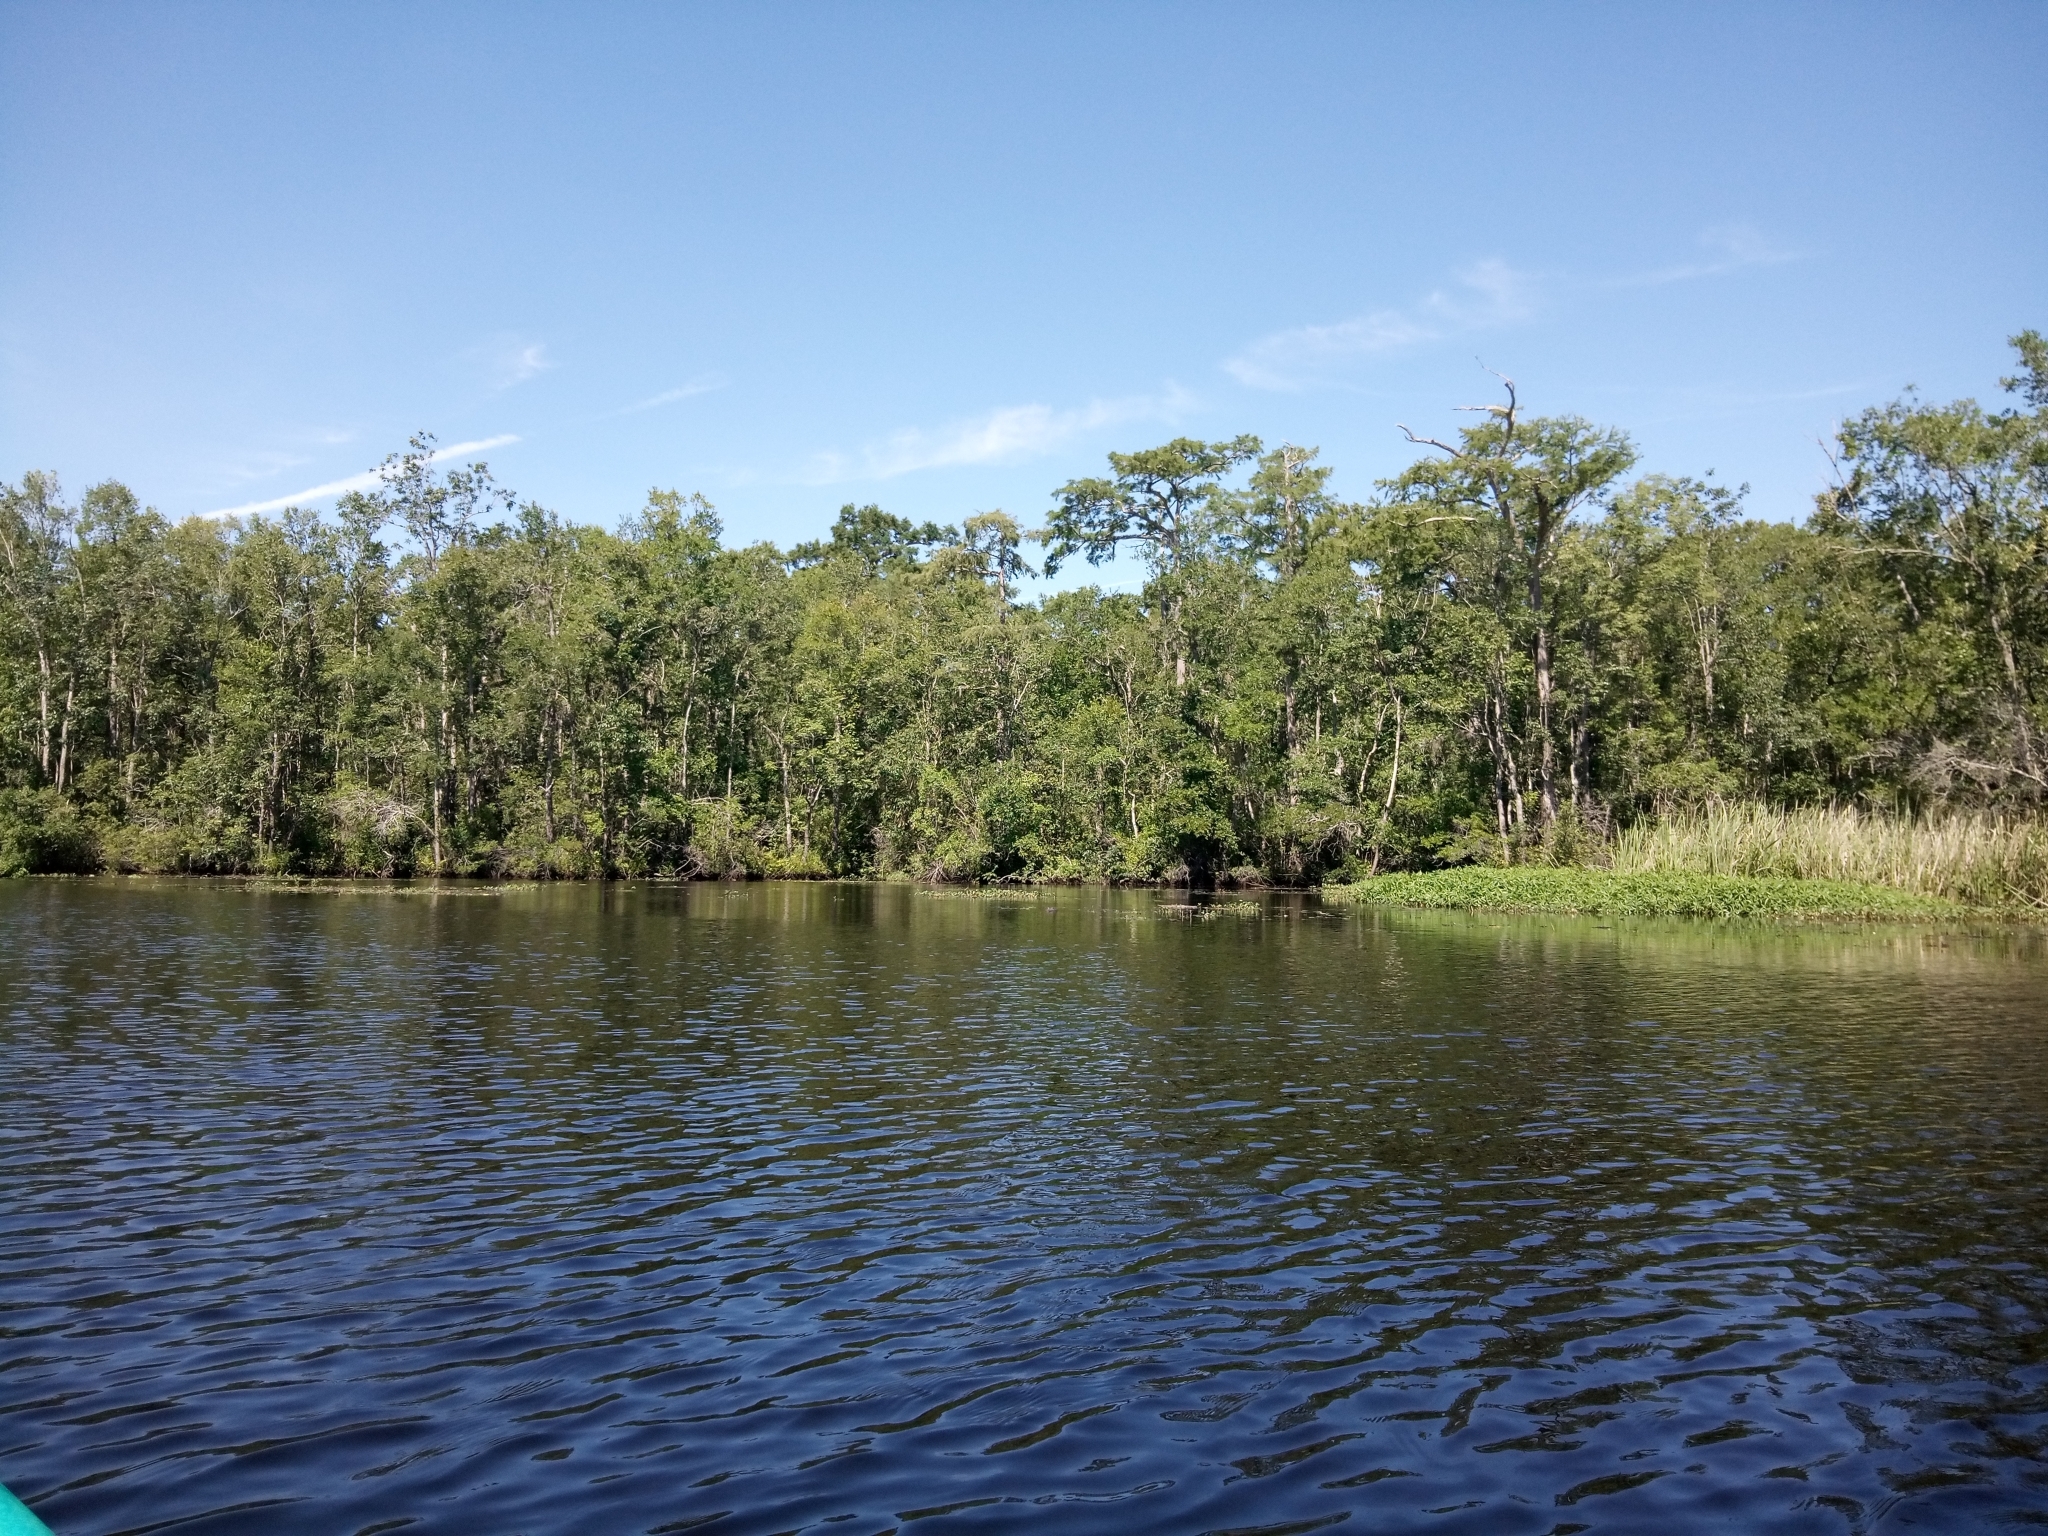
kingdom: Animalia
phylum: Chordata
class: Crocodylia
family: Alligatoridae
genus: Alligator
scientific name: Alligator mississippiensis
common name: American alligator
